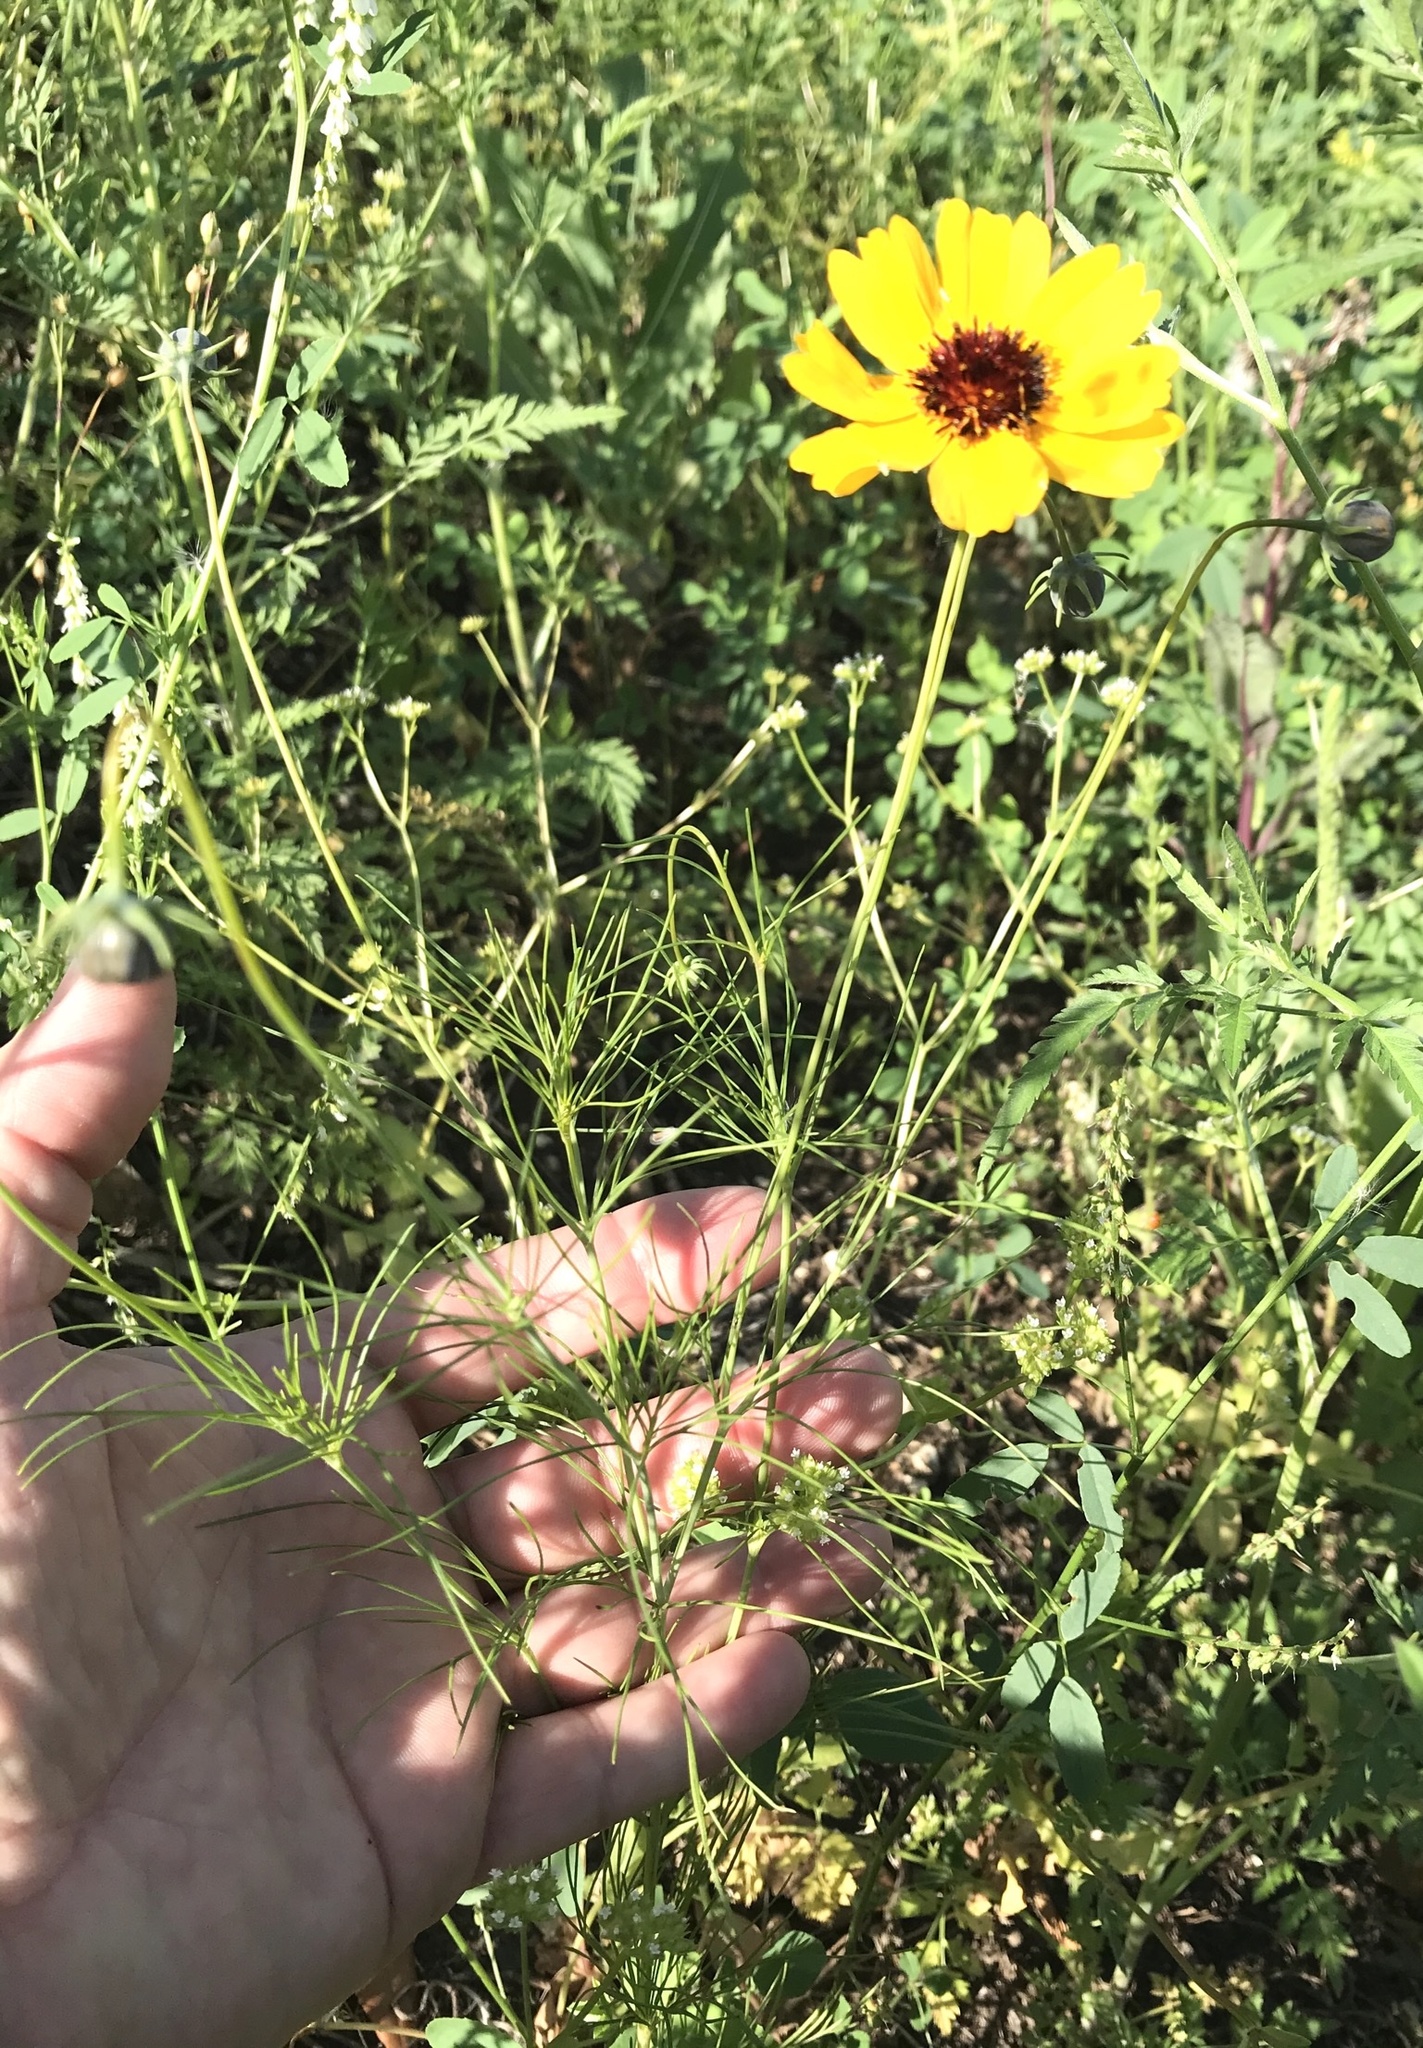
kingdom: Plantae
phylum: Tracheophyta
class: Magnoliopsida
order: Asterales
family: Asteraceae
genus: Thelesperma
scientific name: Thelesperma filifolium
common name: Stiff greenthread
